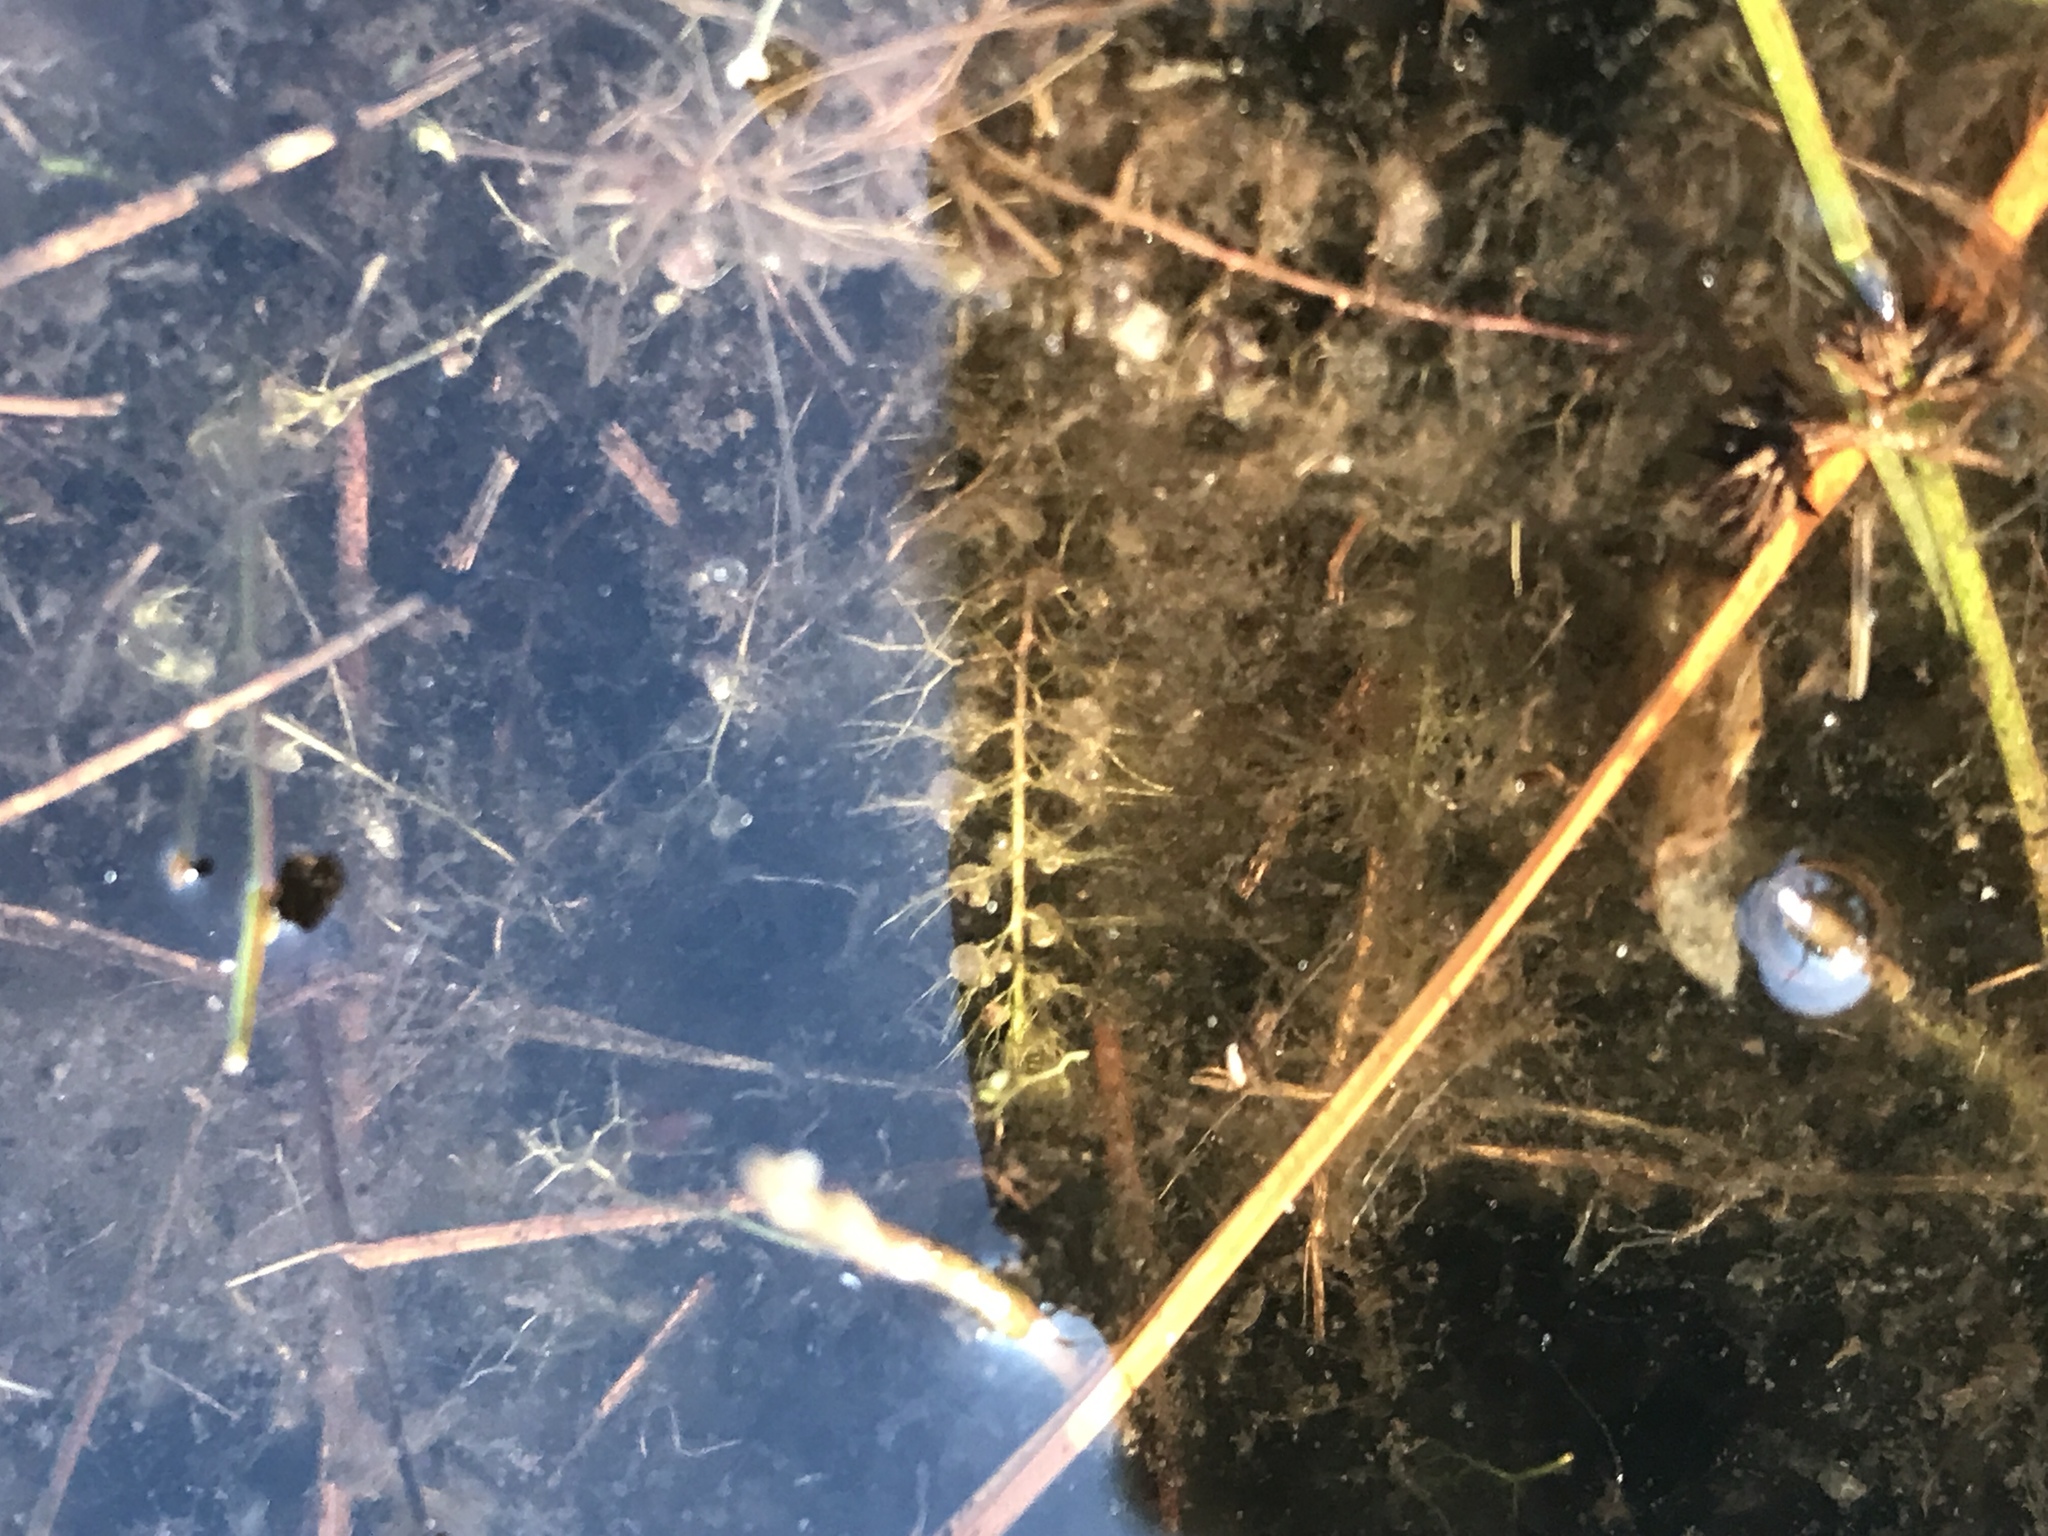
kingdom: Plantae
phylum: Tracheophyta
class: Magnoliopsida
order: Lamiales
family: Lentibulariaceae
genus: Utricularia
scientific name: Utricularia striata
